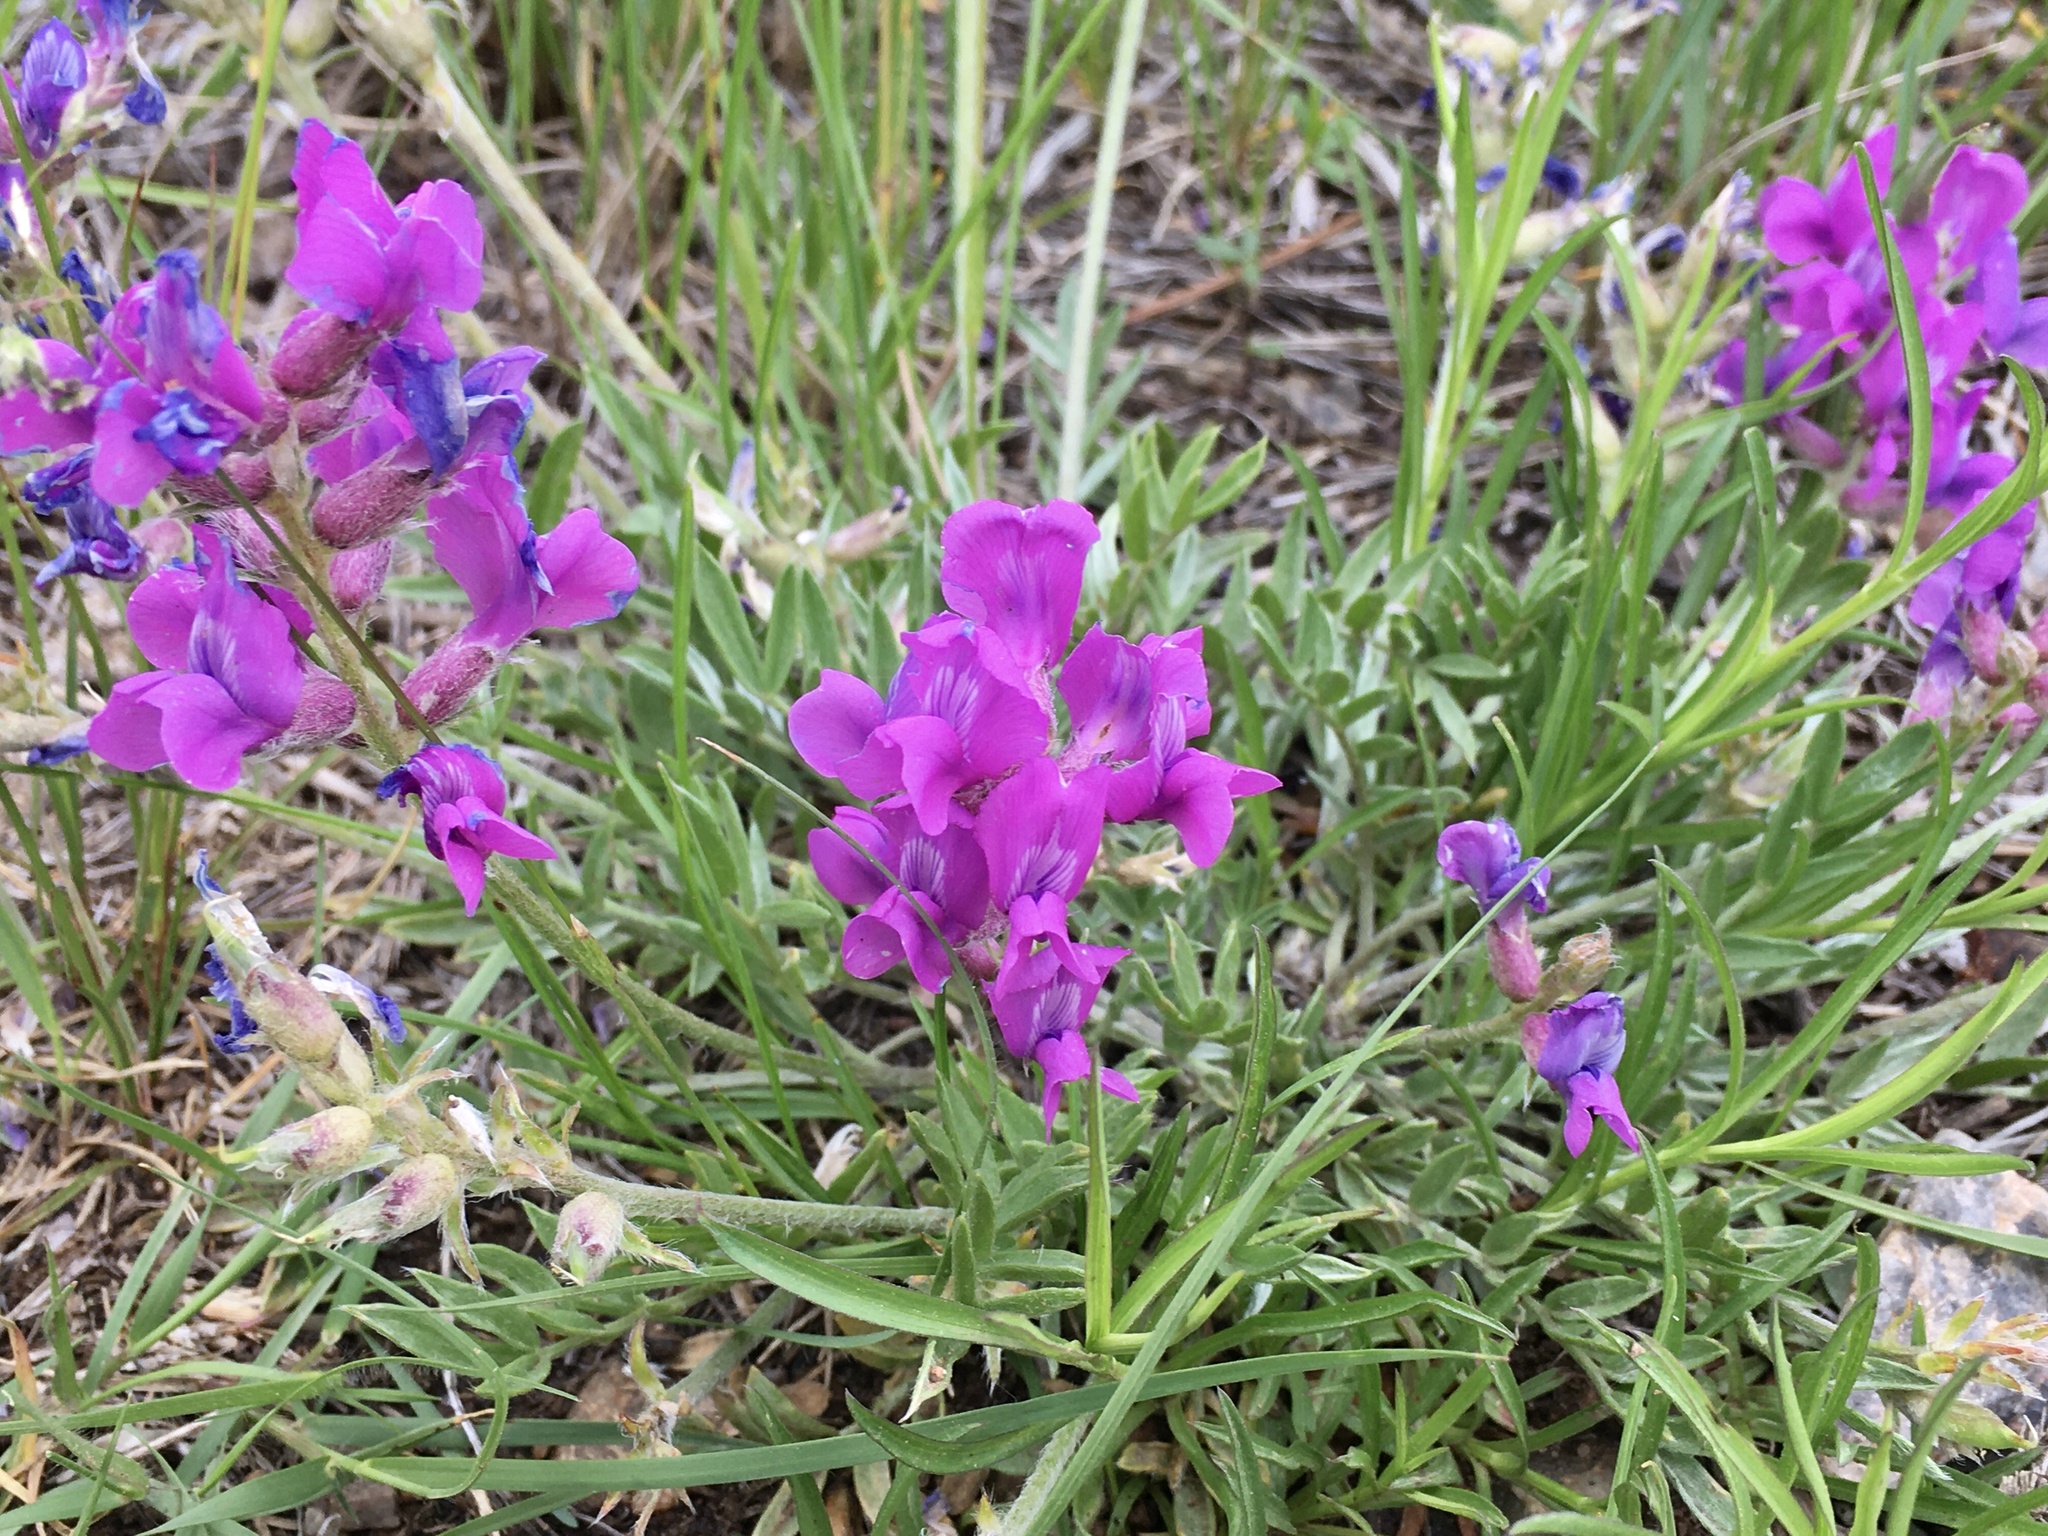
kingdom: Plantae
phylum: Tracheophyta
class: Magnoliopsida
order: Fabales
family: Fabaceae
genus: Oxytropis
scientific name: Oxytropis lambertii
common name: Purple locoweed
